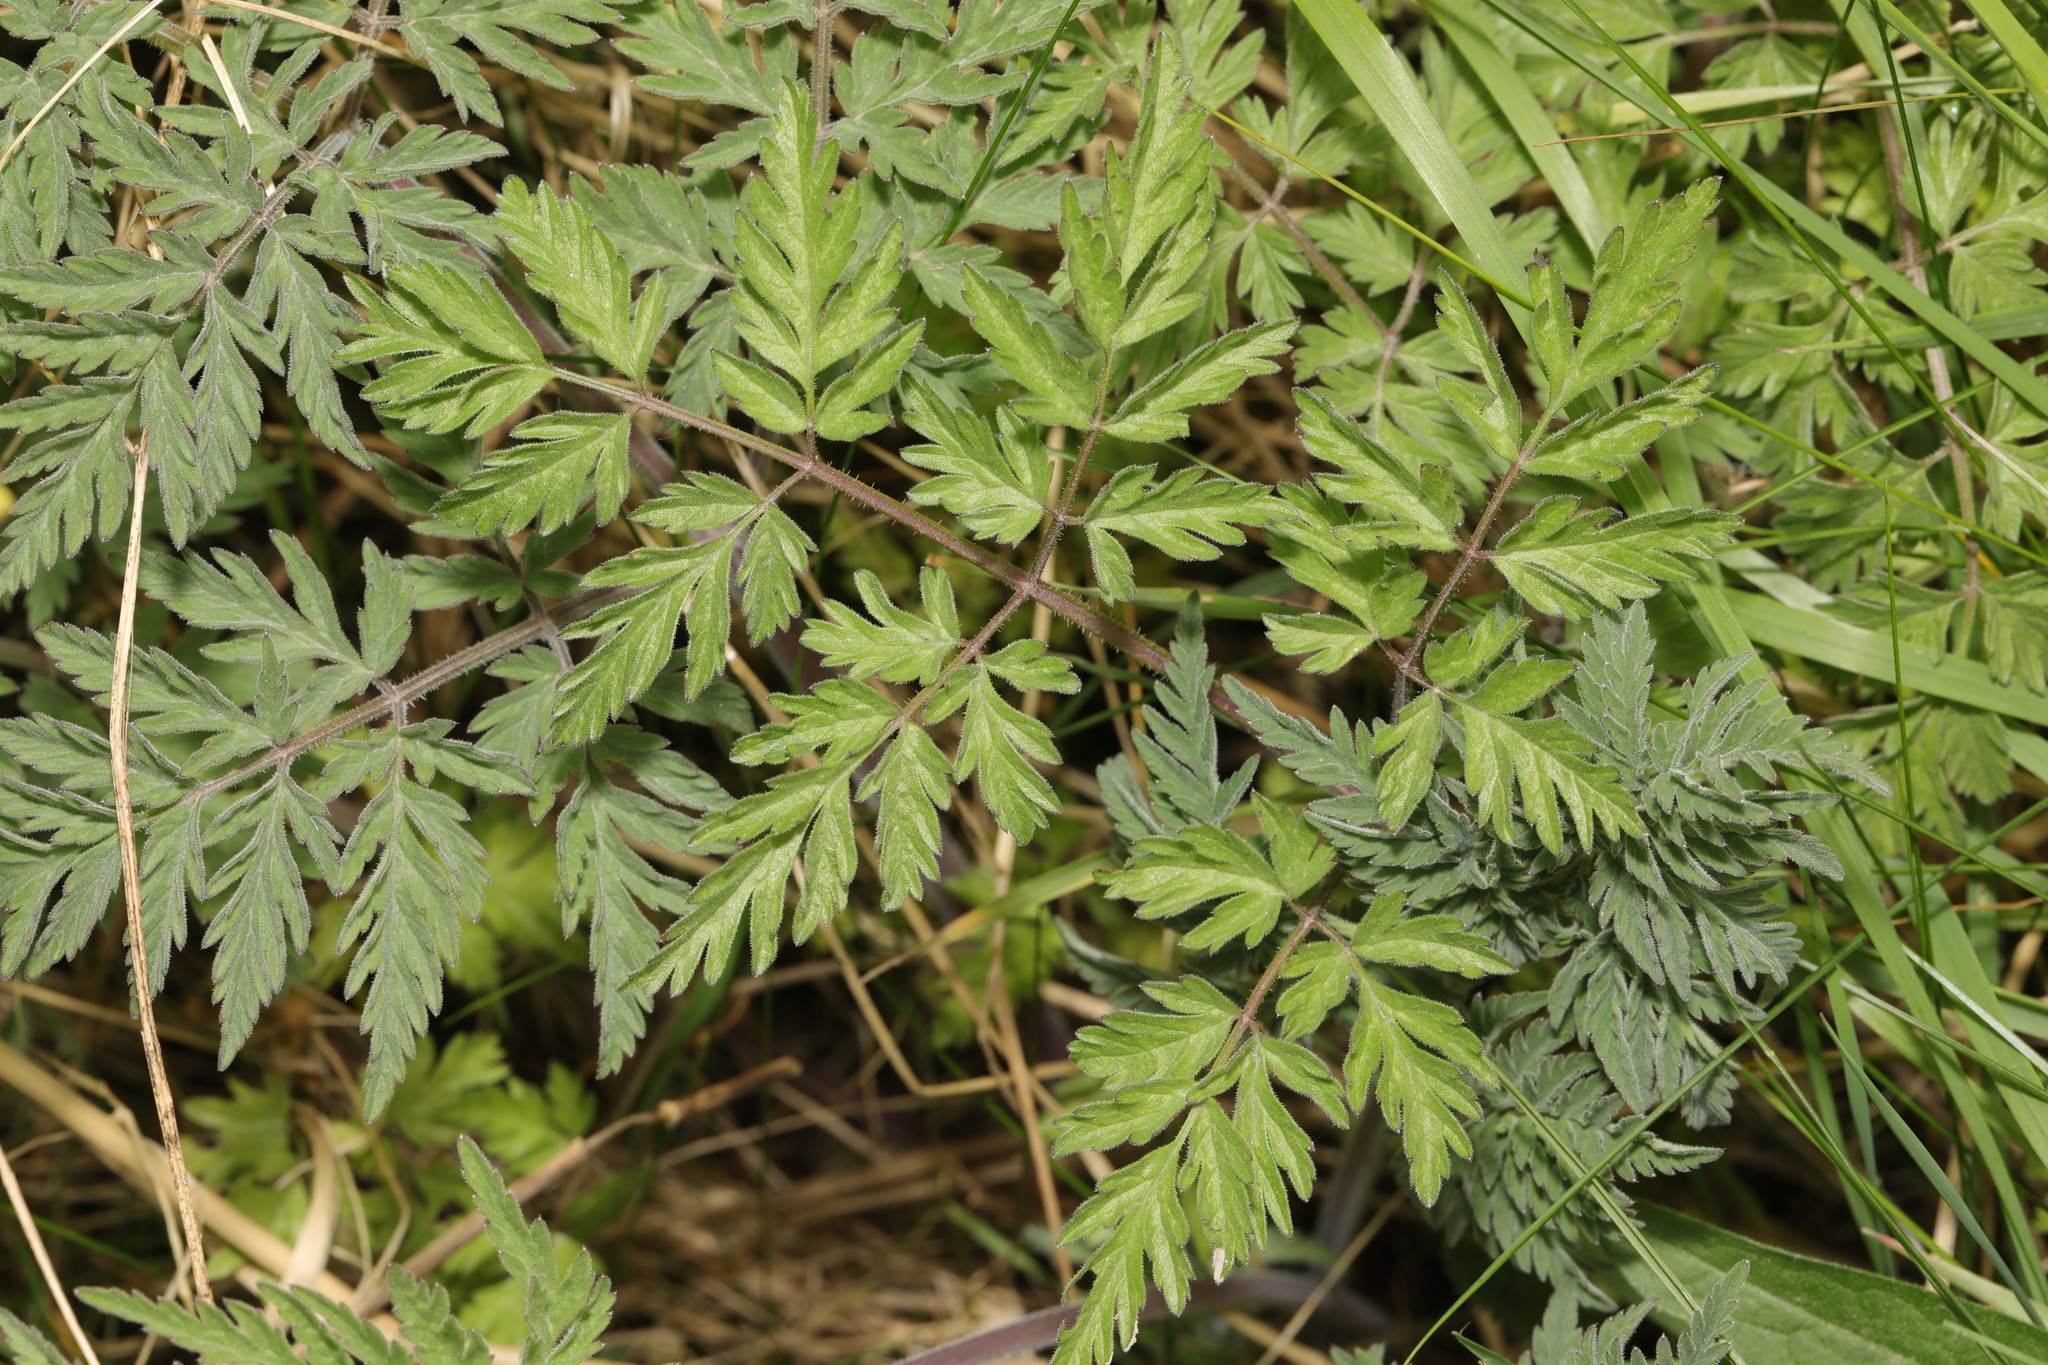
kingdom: Plantae
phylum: Tracheophyta
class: Magnoliopsida
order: Apiales
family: Apiaceae
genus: Anthriscus
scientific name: Anthriscus sylvestris
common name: Cow parsley
